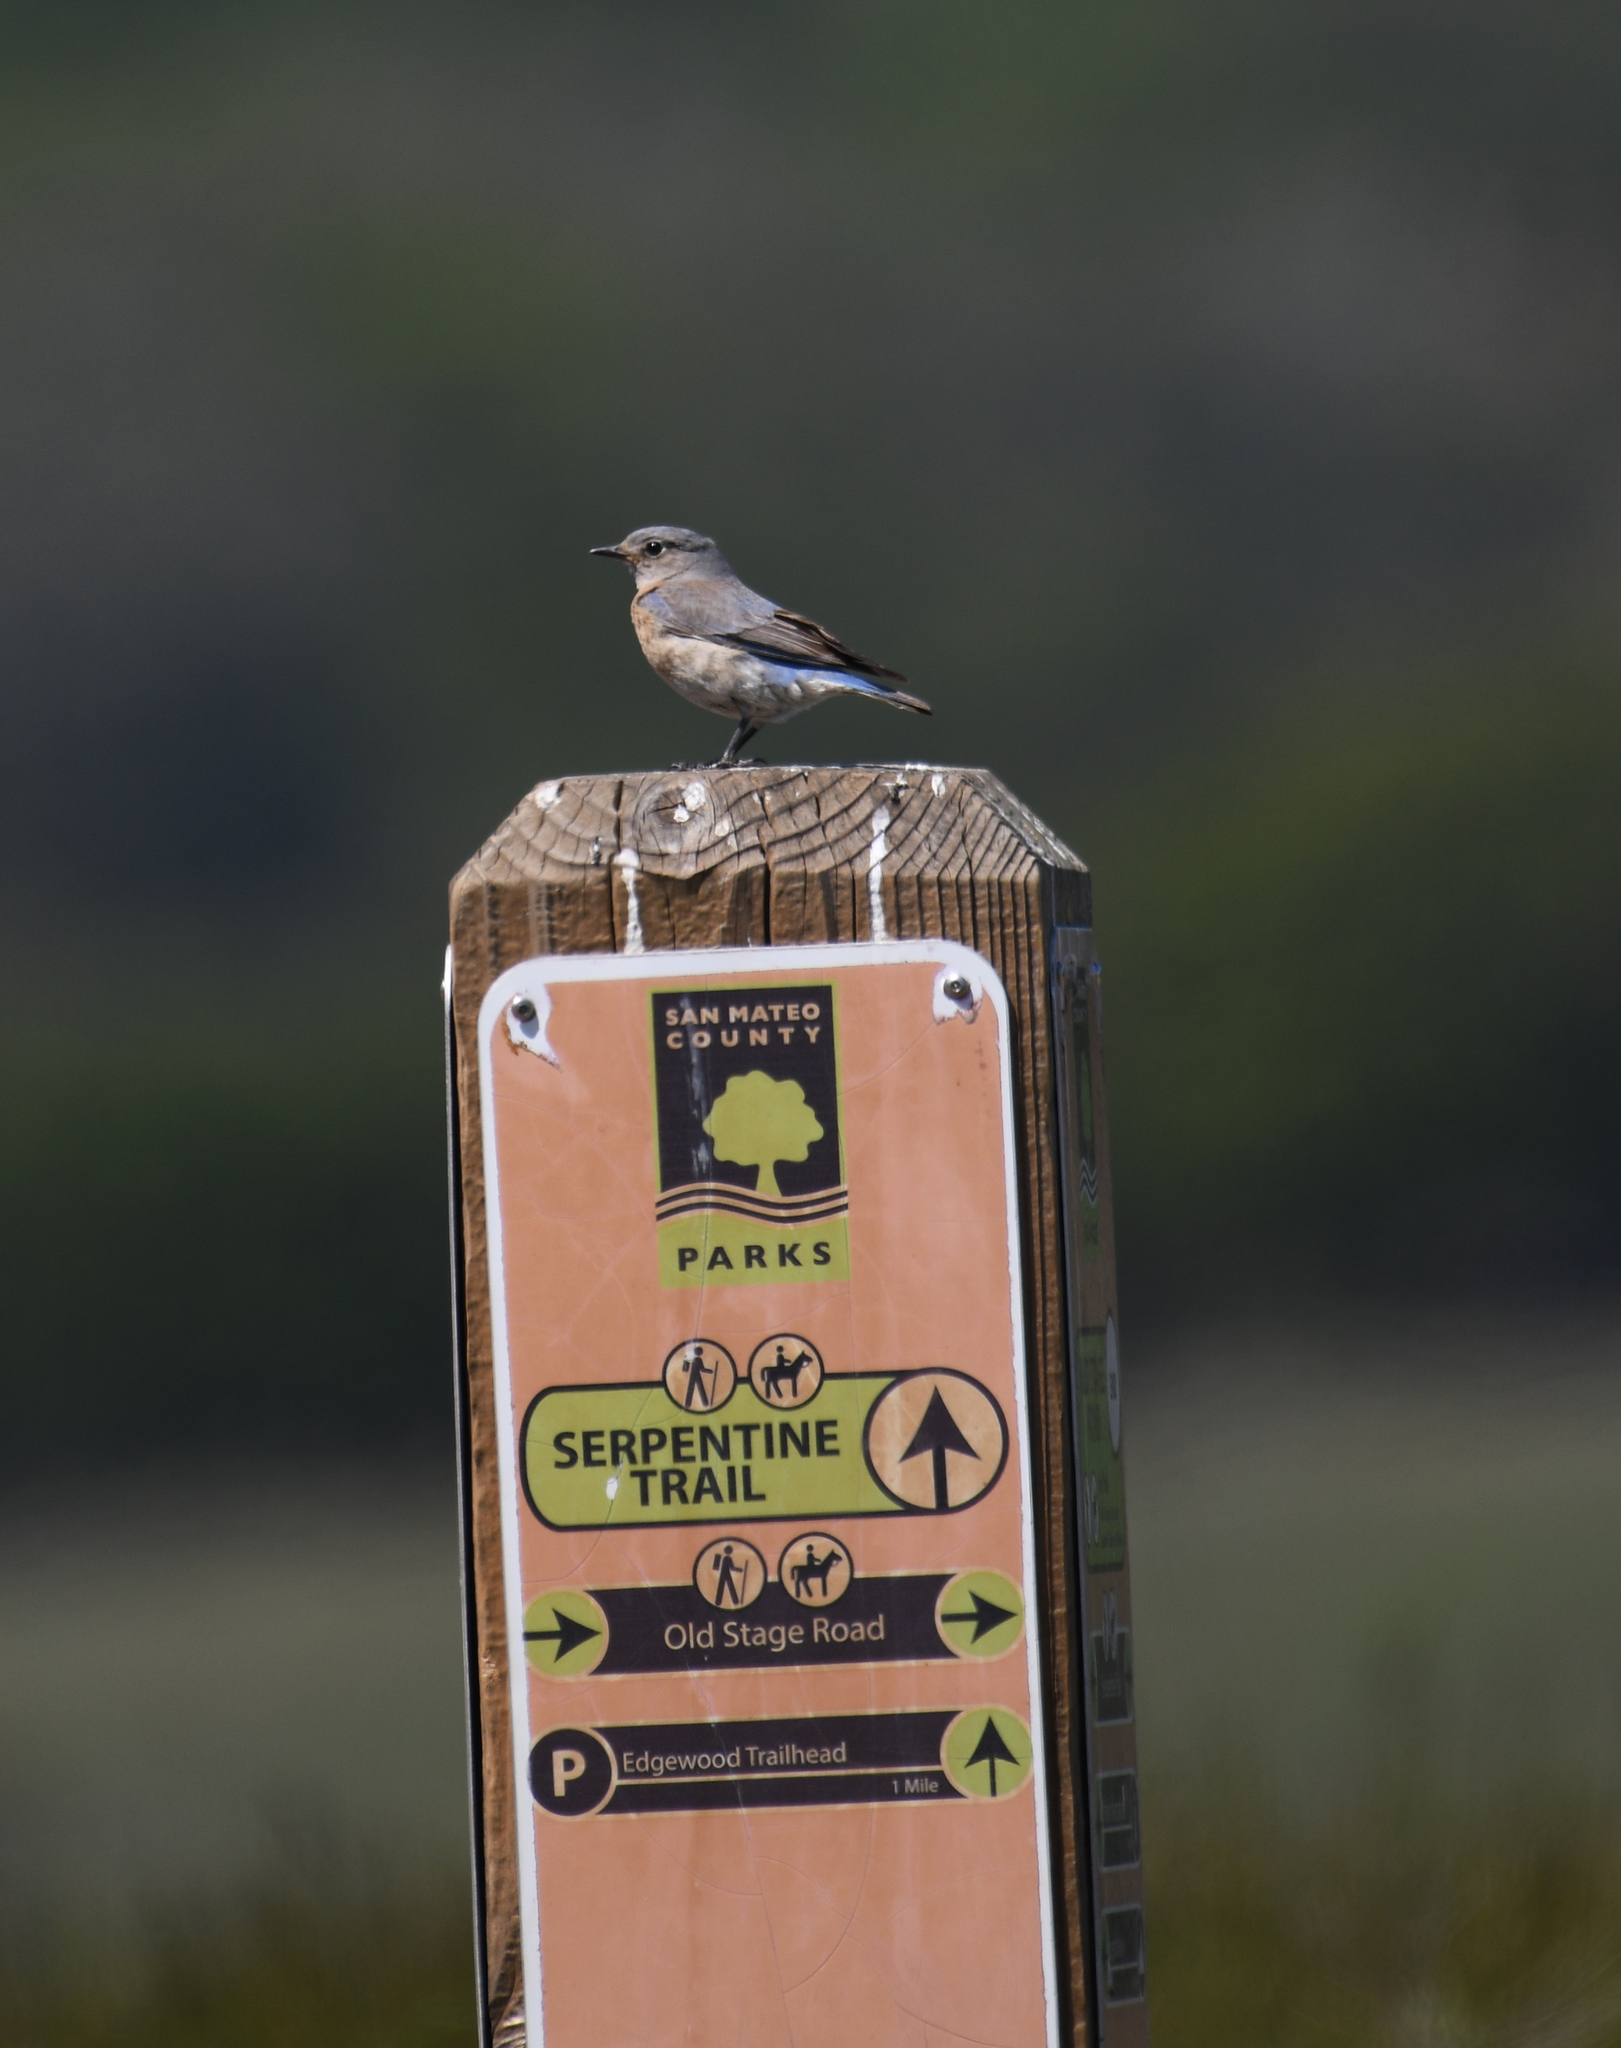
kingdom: Animalia
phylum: Chordata
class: Aves
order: Passeriformes
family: Turdidae
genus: Sialia
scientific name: Sialia mexicana
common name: Western bluebird
